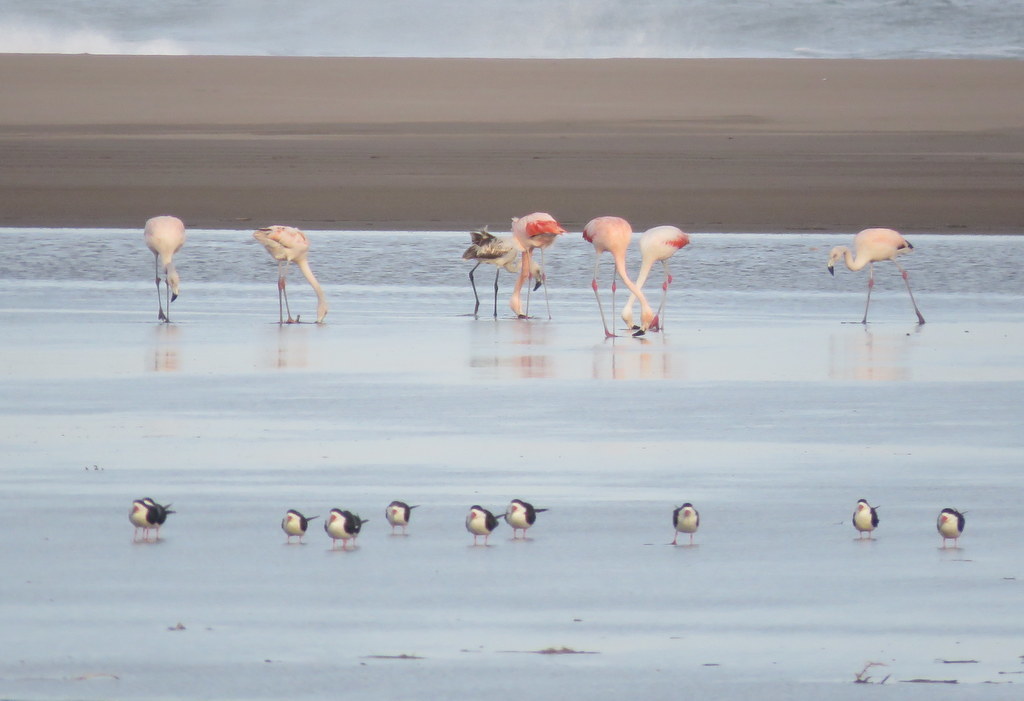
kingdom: Animalia
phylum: Chordata
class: Aves
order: Phoenicopteriformes
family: Phoenicopteridae
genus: Phoenicopterus
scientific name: Phoenicopterus chilensis
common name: Chilean flamingo
